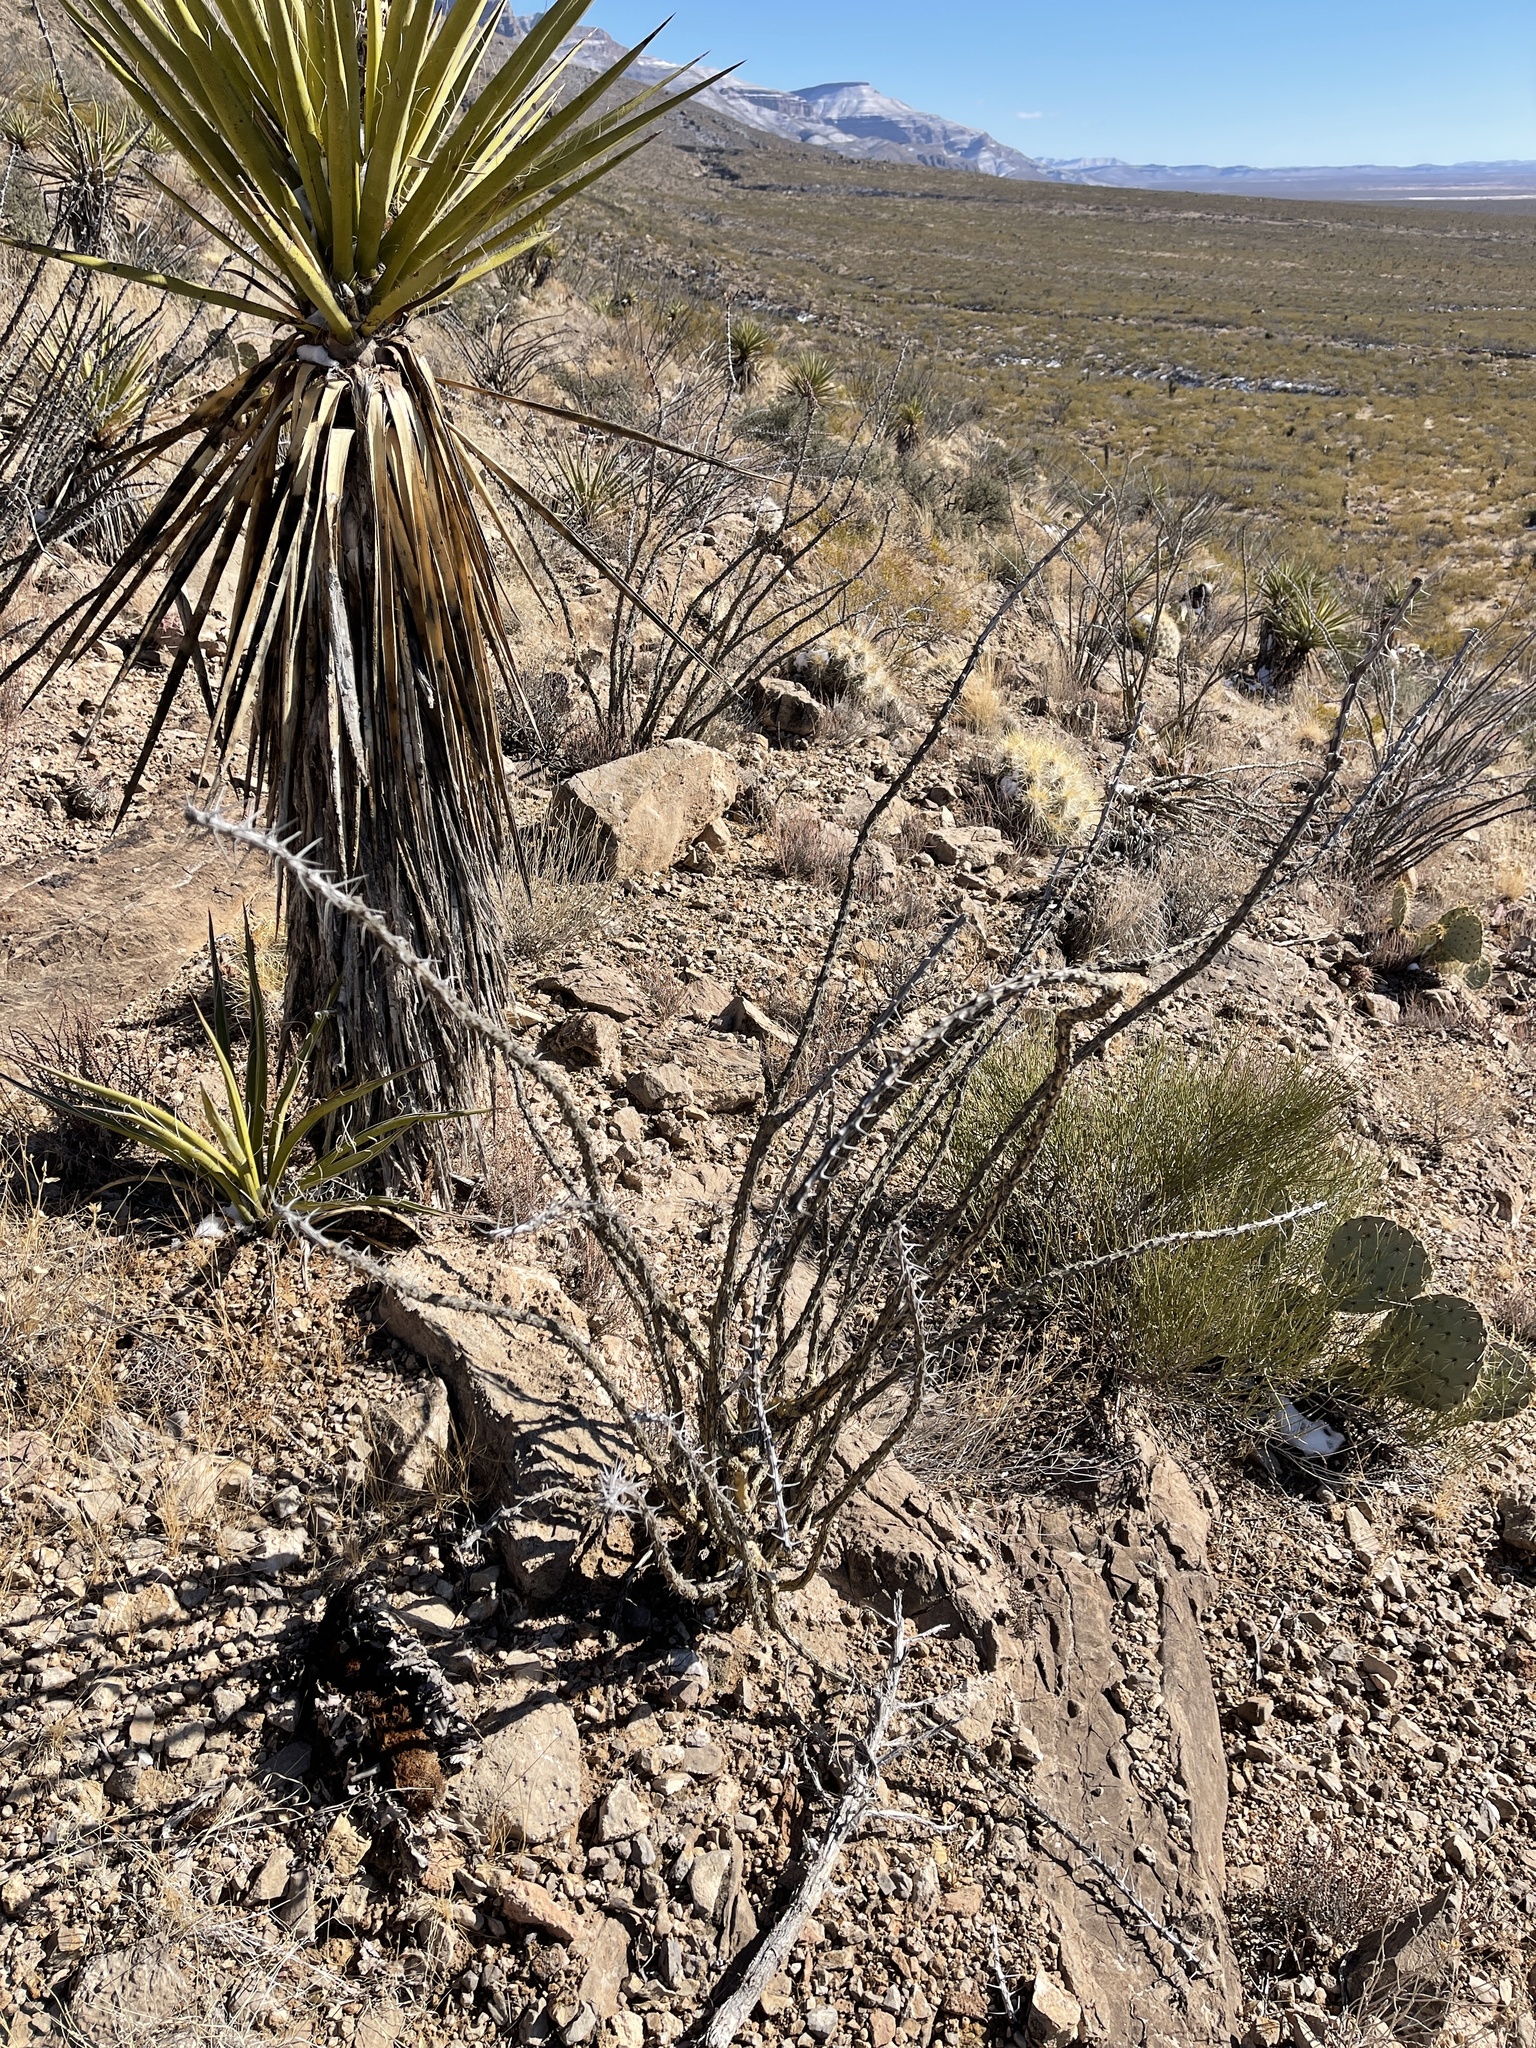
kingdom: Plantae
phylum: Tracheophyta
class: Magnoliopsida
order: Ericales
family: Fouquieriaceae
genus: Fouquieria
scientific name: Fouquieria splendens
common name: Vine-cactus
